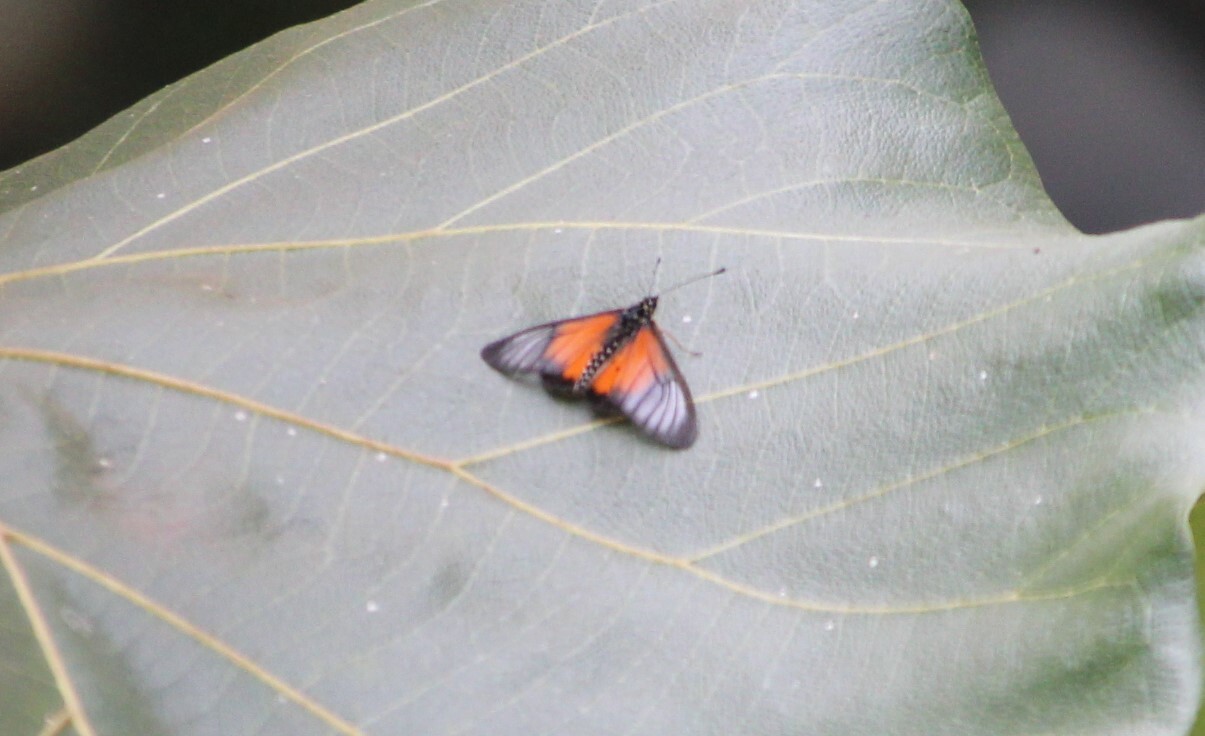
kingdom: Animalia
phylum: Arthropoda
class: Insecta
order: Lepidoptera
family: Nymphalidae
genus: Acraea
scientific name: Acraea
